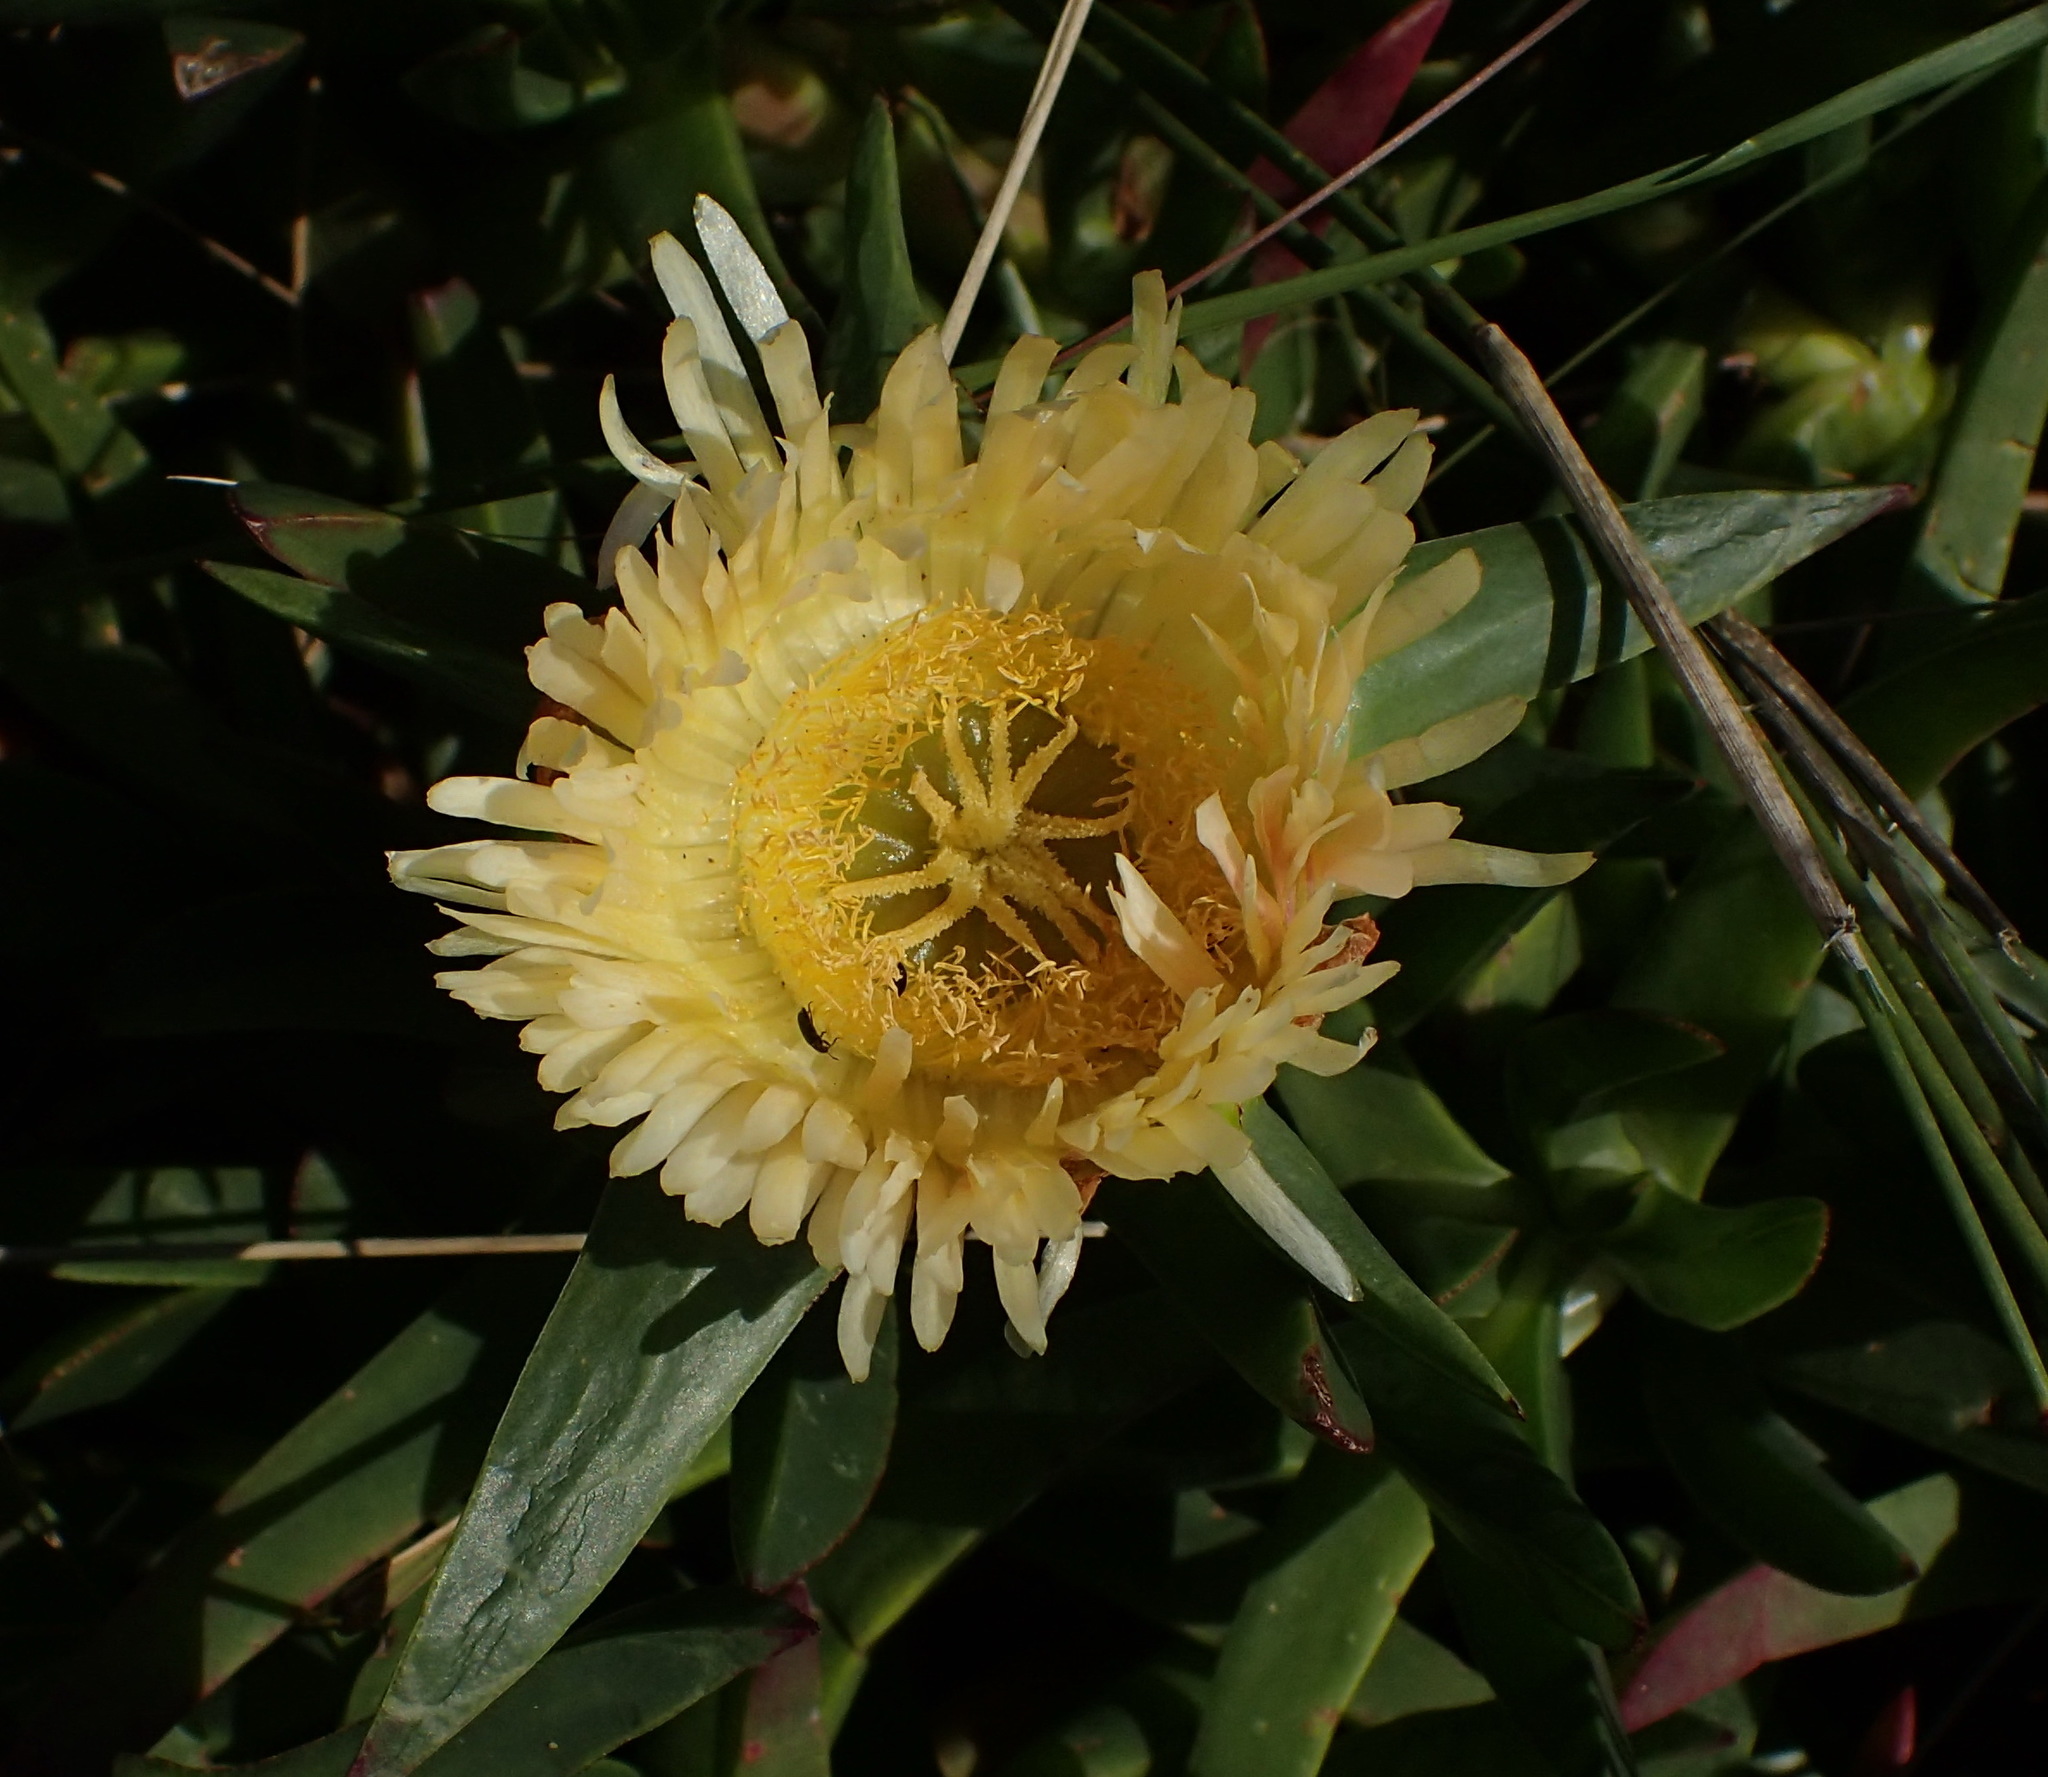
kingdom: Plantae
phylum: Tracheophyta
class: Magnoliopsida
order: Caryophyllales
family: Aizoaceae
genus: Carpobrotus
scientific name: Carpobrotus edulis
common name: Hottentot-fig
